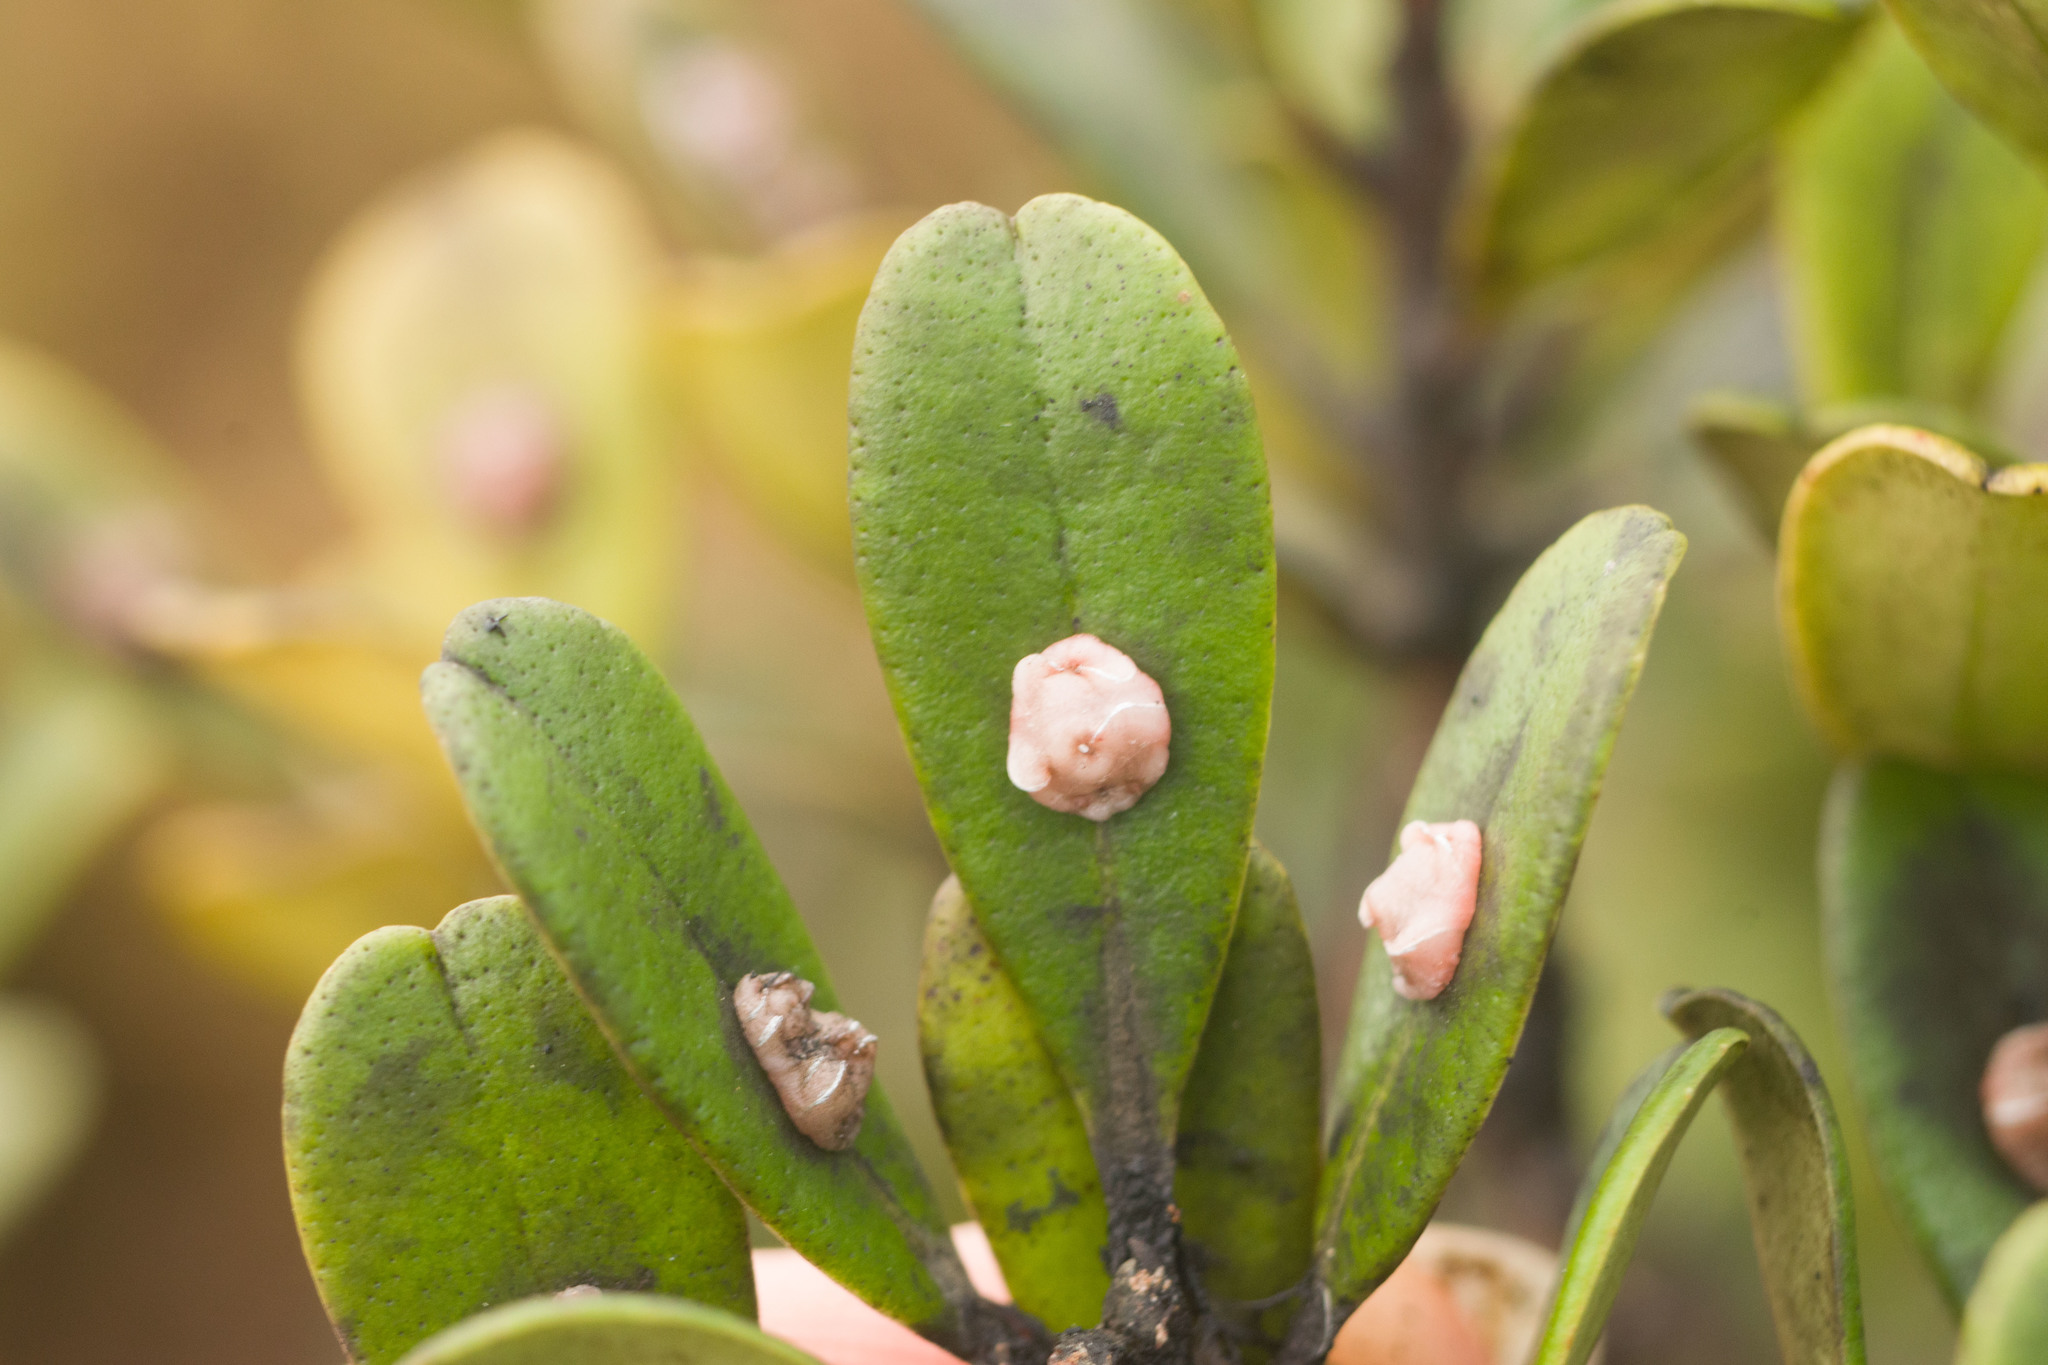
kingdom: Plantae
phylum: Tracheophyta
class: Magnoliopsida
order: Ericales
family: Primulaceae
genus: Myrsine
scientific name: Myrsine sandwicensis
